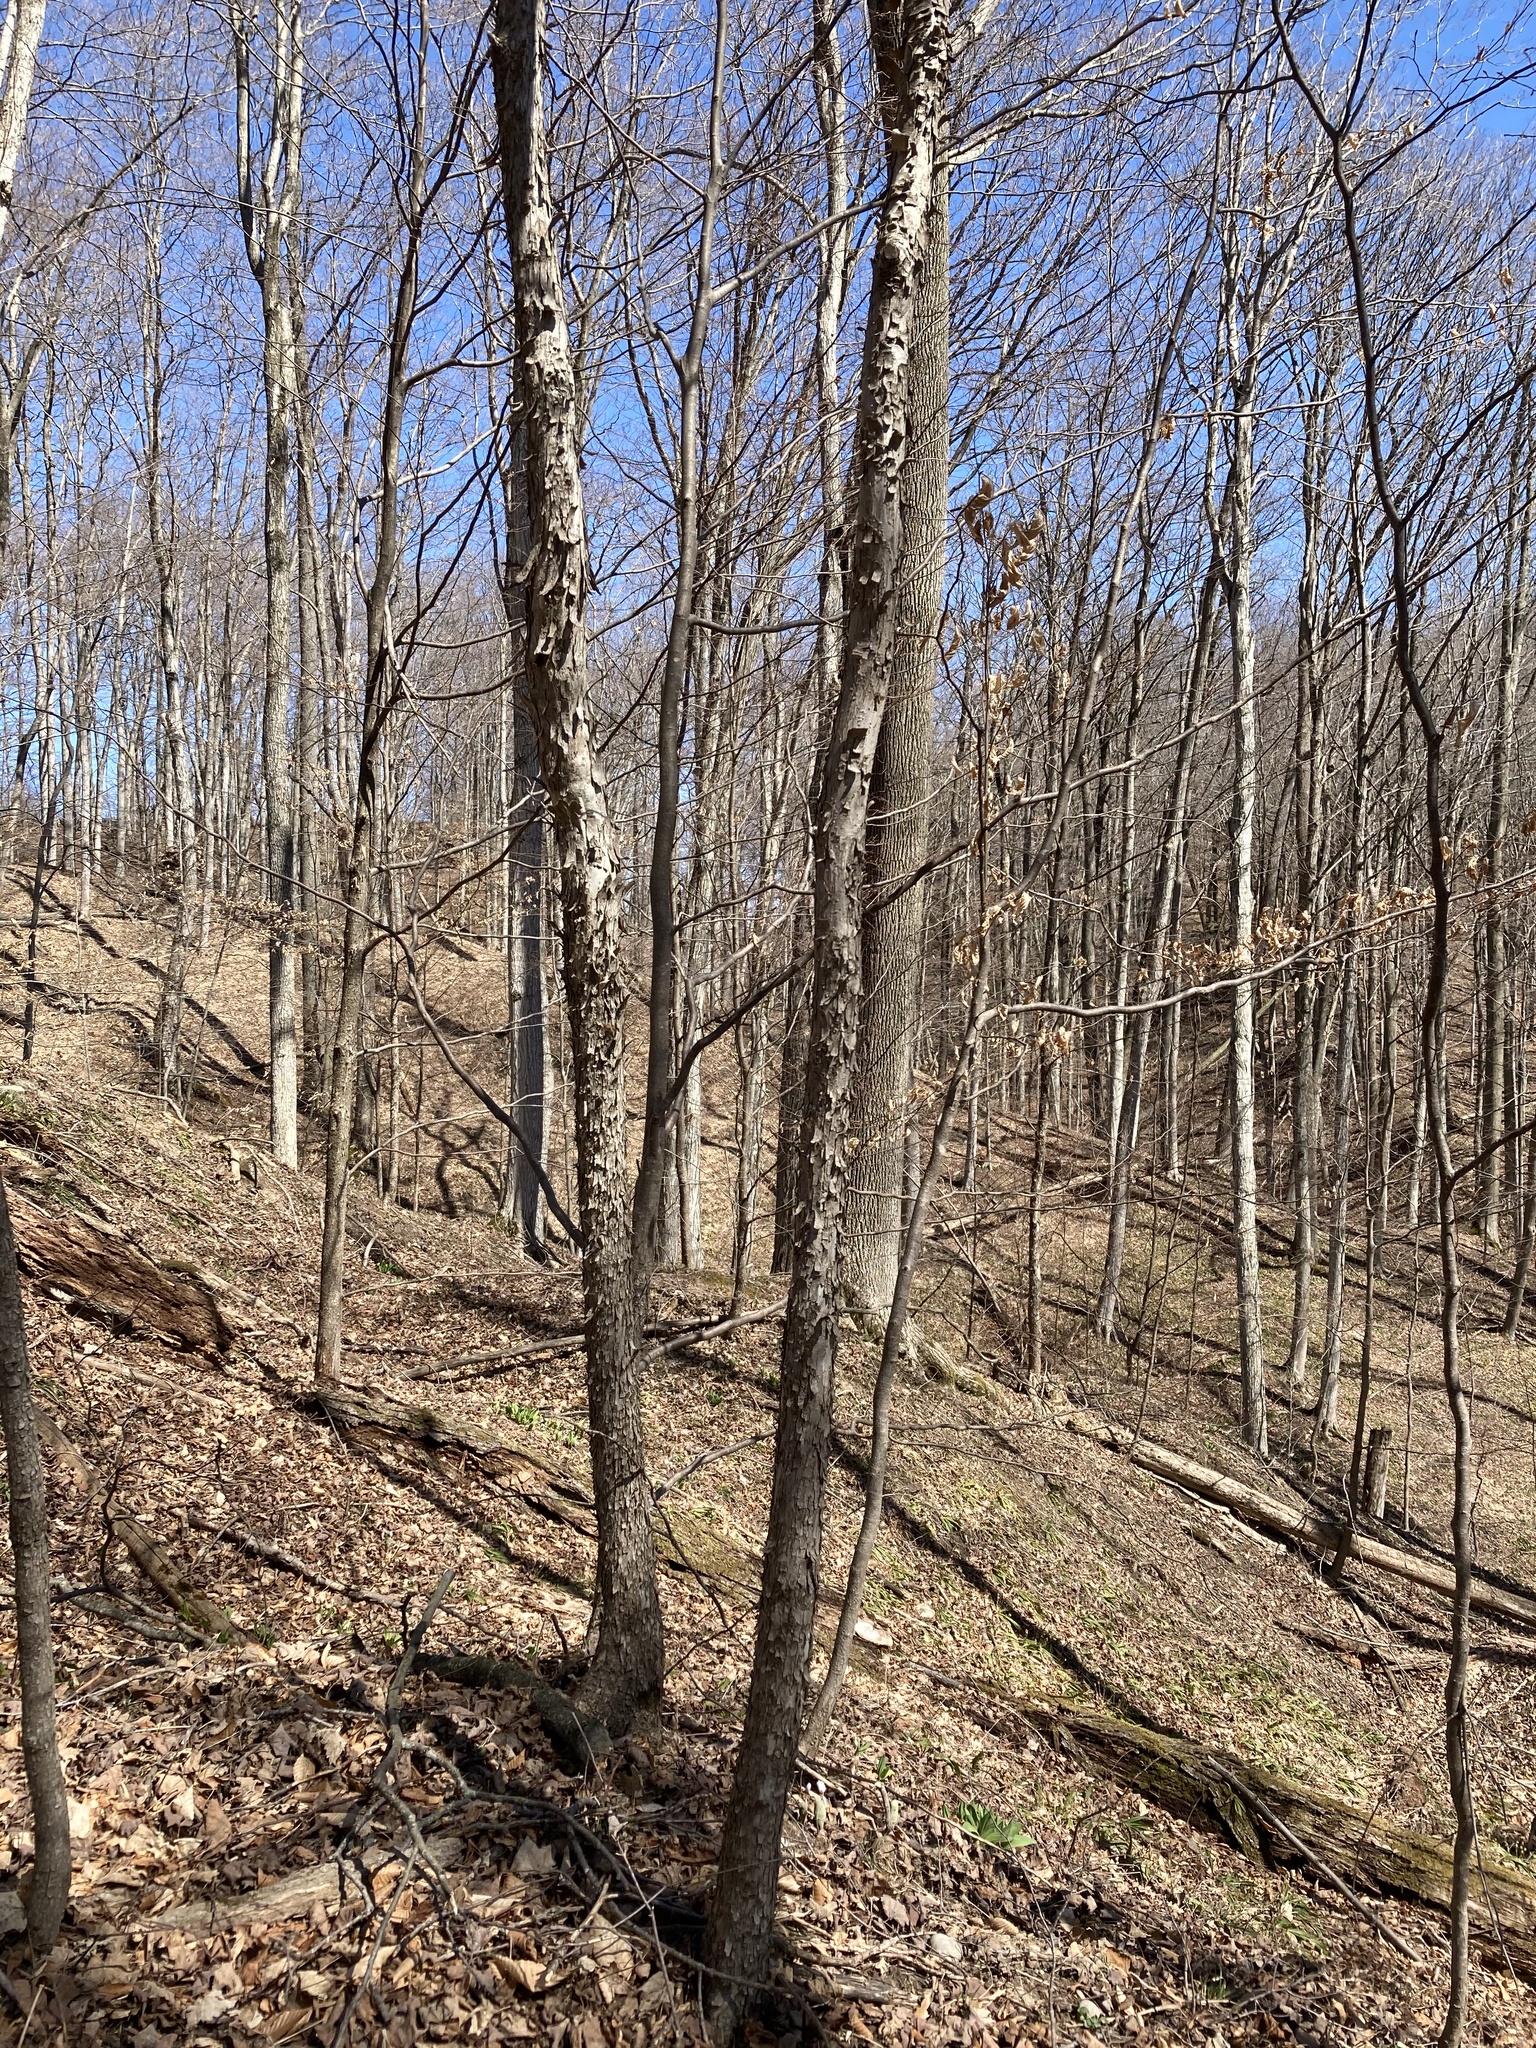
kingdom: Plantae
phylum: Tracheophyta
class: Magnoliopsida
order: Fagales
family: Betulaceae
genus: Ostrya
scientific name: Ostrya virginiana
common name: Ironwood
